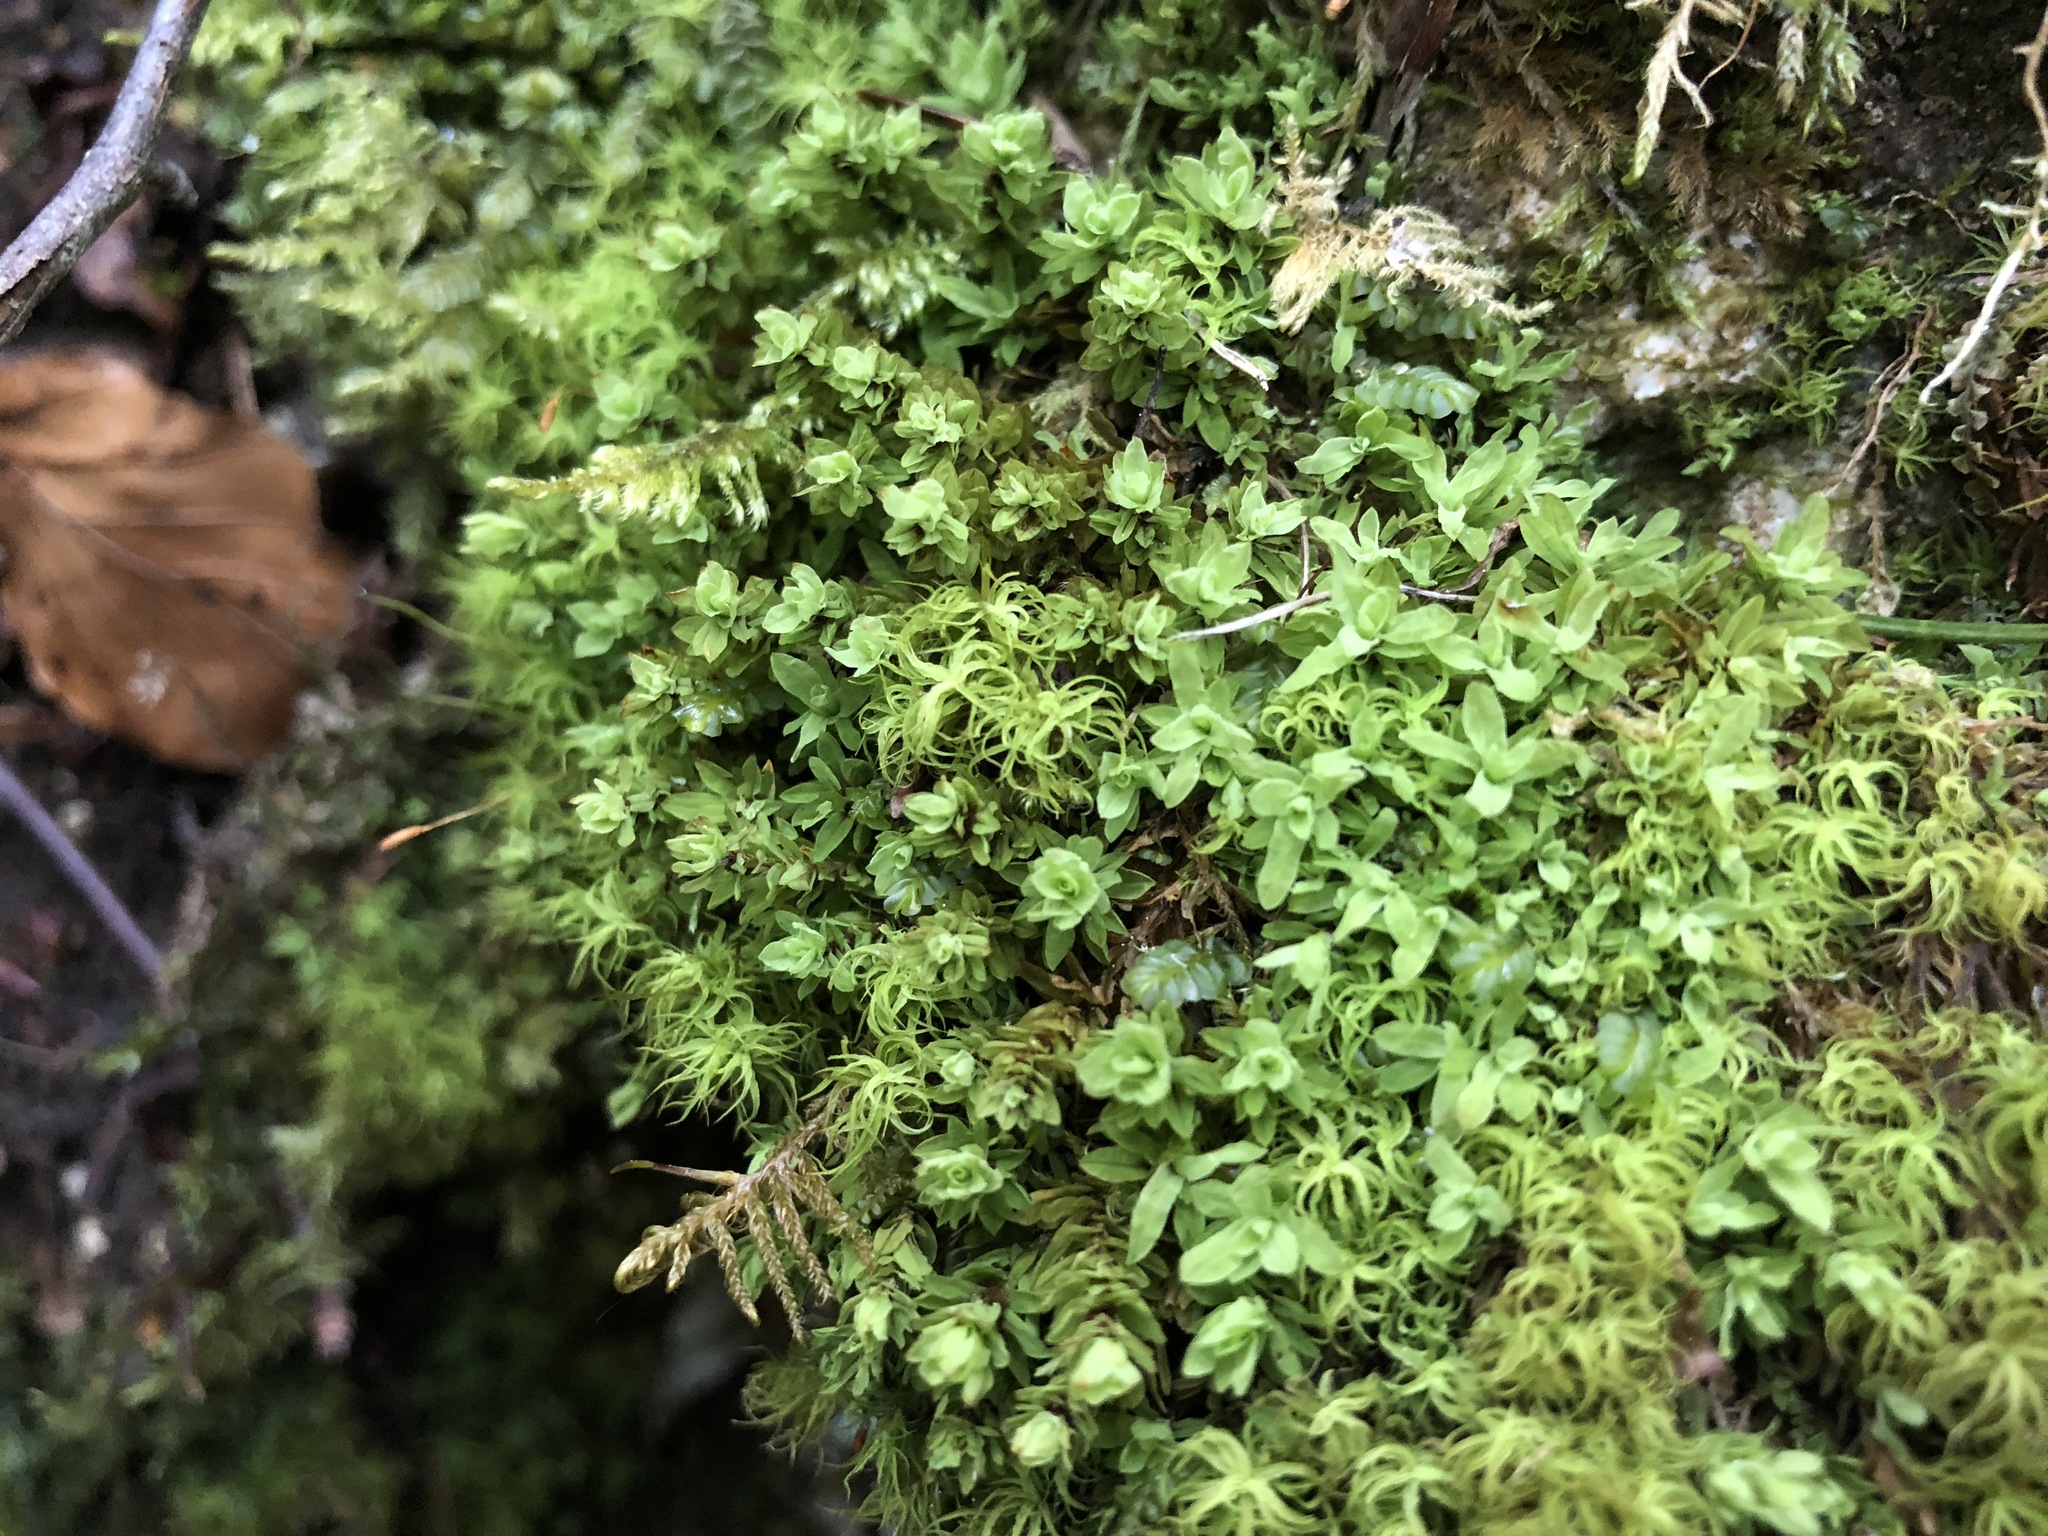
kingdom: Plantae
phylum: Bryophyta
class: Bryopsida
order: Encalyptales
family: Encalyptaceae
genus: Encalypta
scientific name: Encalypta streptocarpa
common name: Spiral extinguisher-moss
